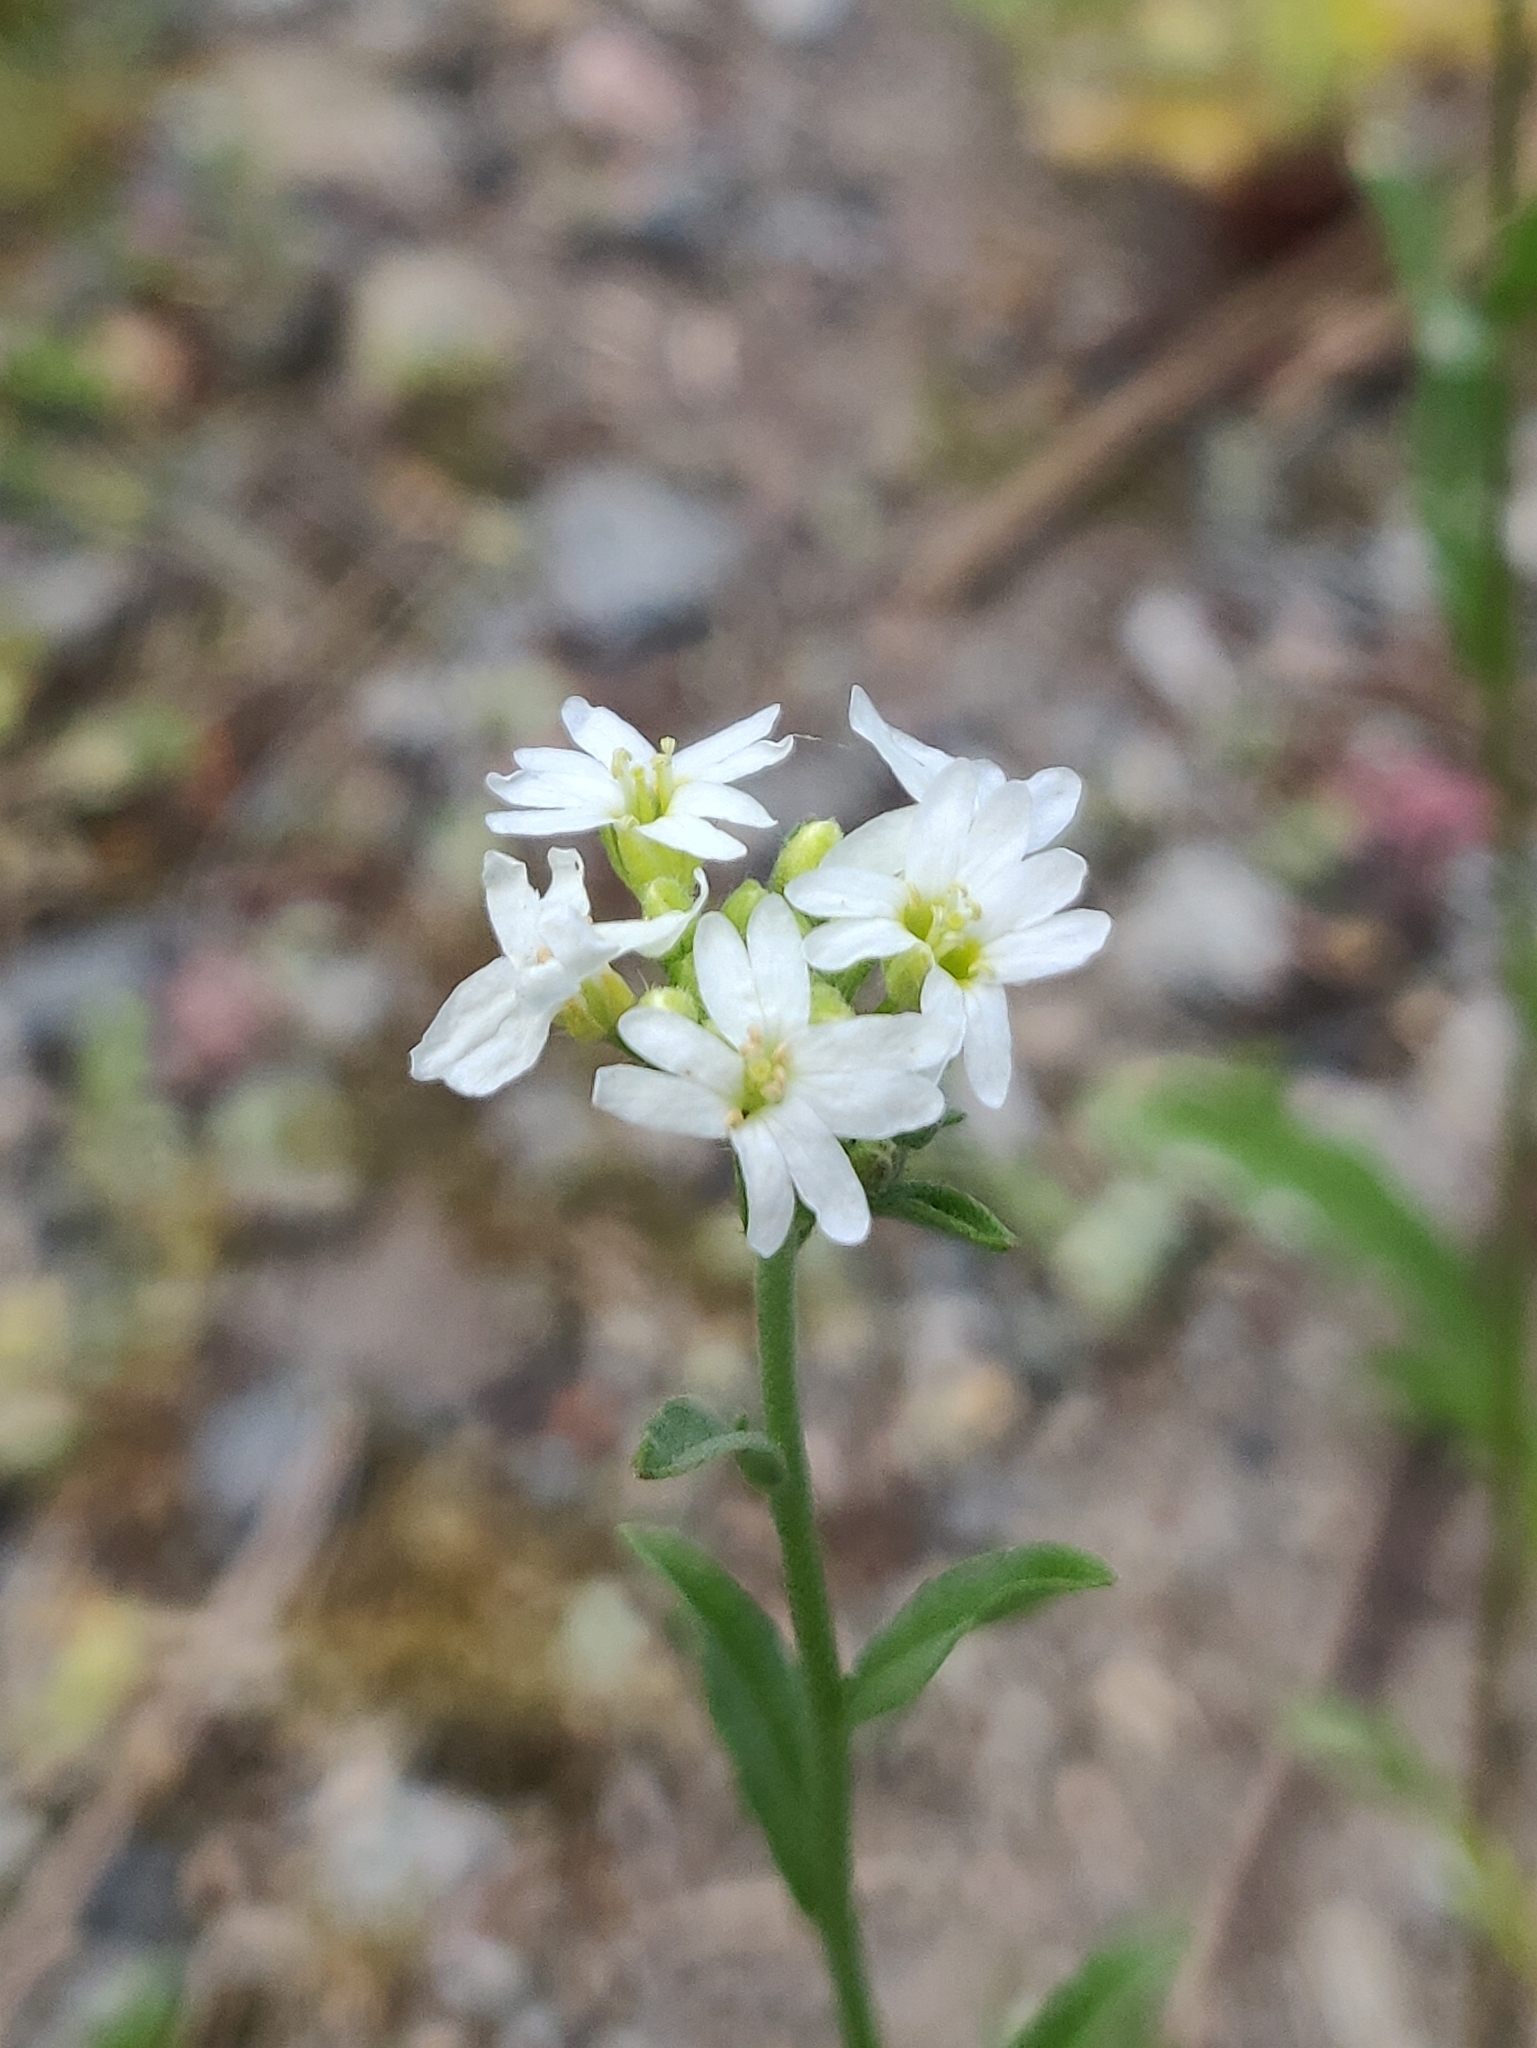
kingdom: Plantae
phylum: Tracheophyta
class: Magnoliopsida
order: Brassicales
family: Brassicaceae
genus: Berteroa
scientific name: Berteroa incana
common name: Hoary alison
